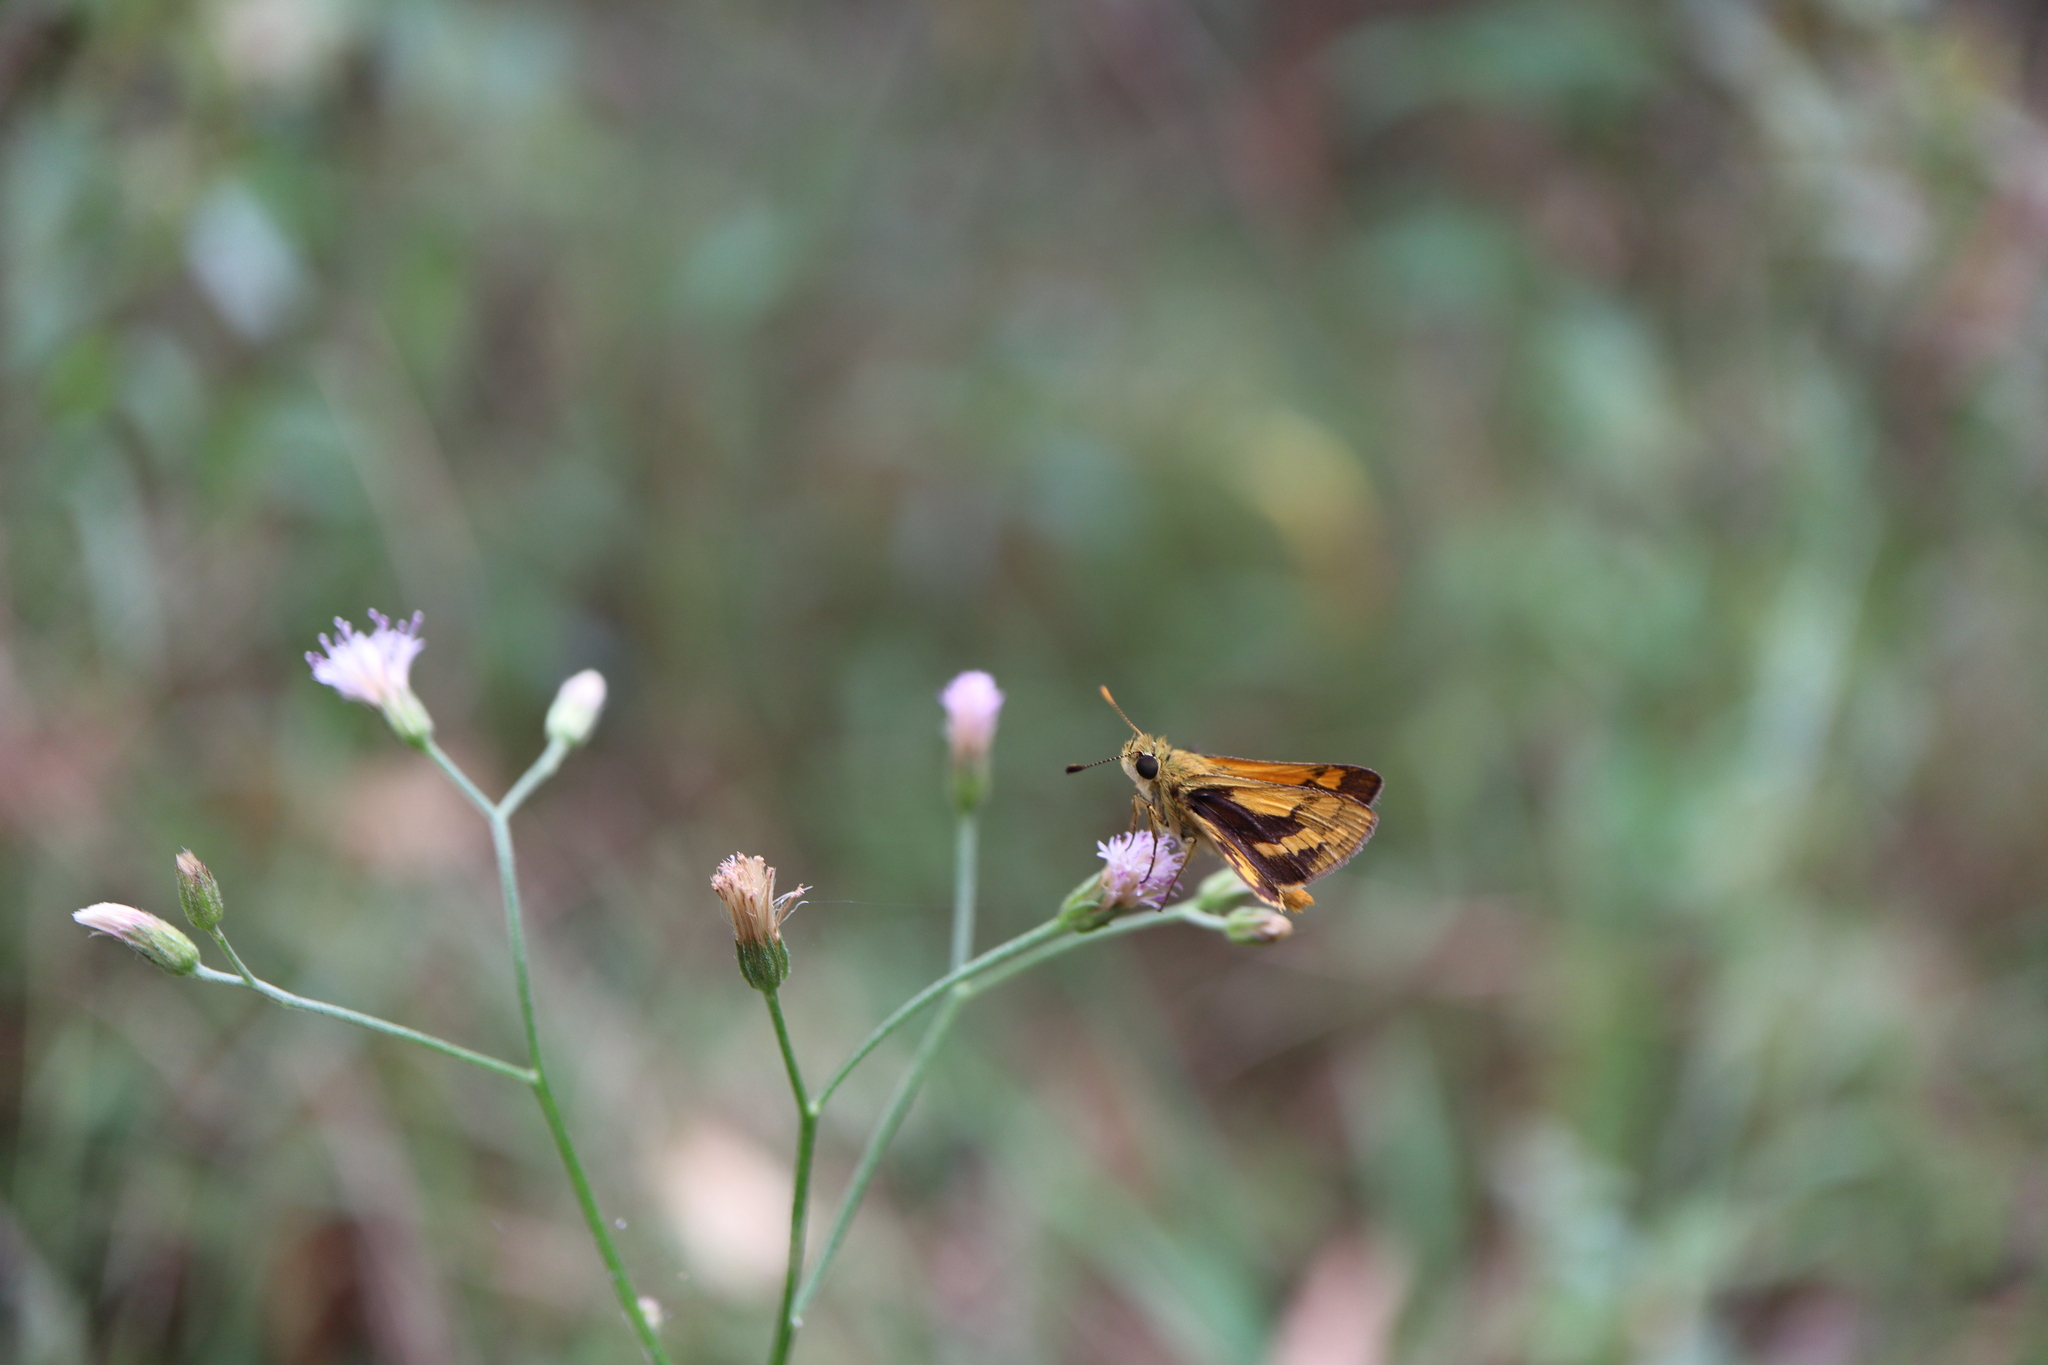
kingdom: Animalia
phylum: Arthropoda
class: Insecta
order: Lepidoptera
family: Hesperiidae
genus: Ocybadistes
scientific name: Ocybadistes walkeri
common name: Yellow-banded dart
